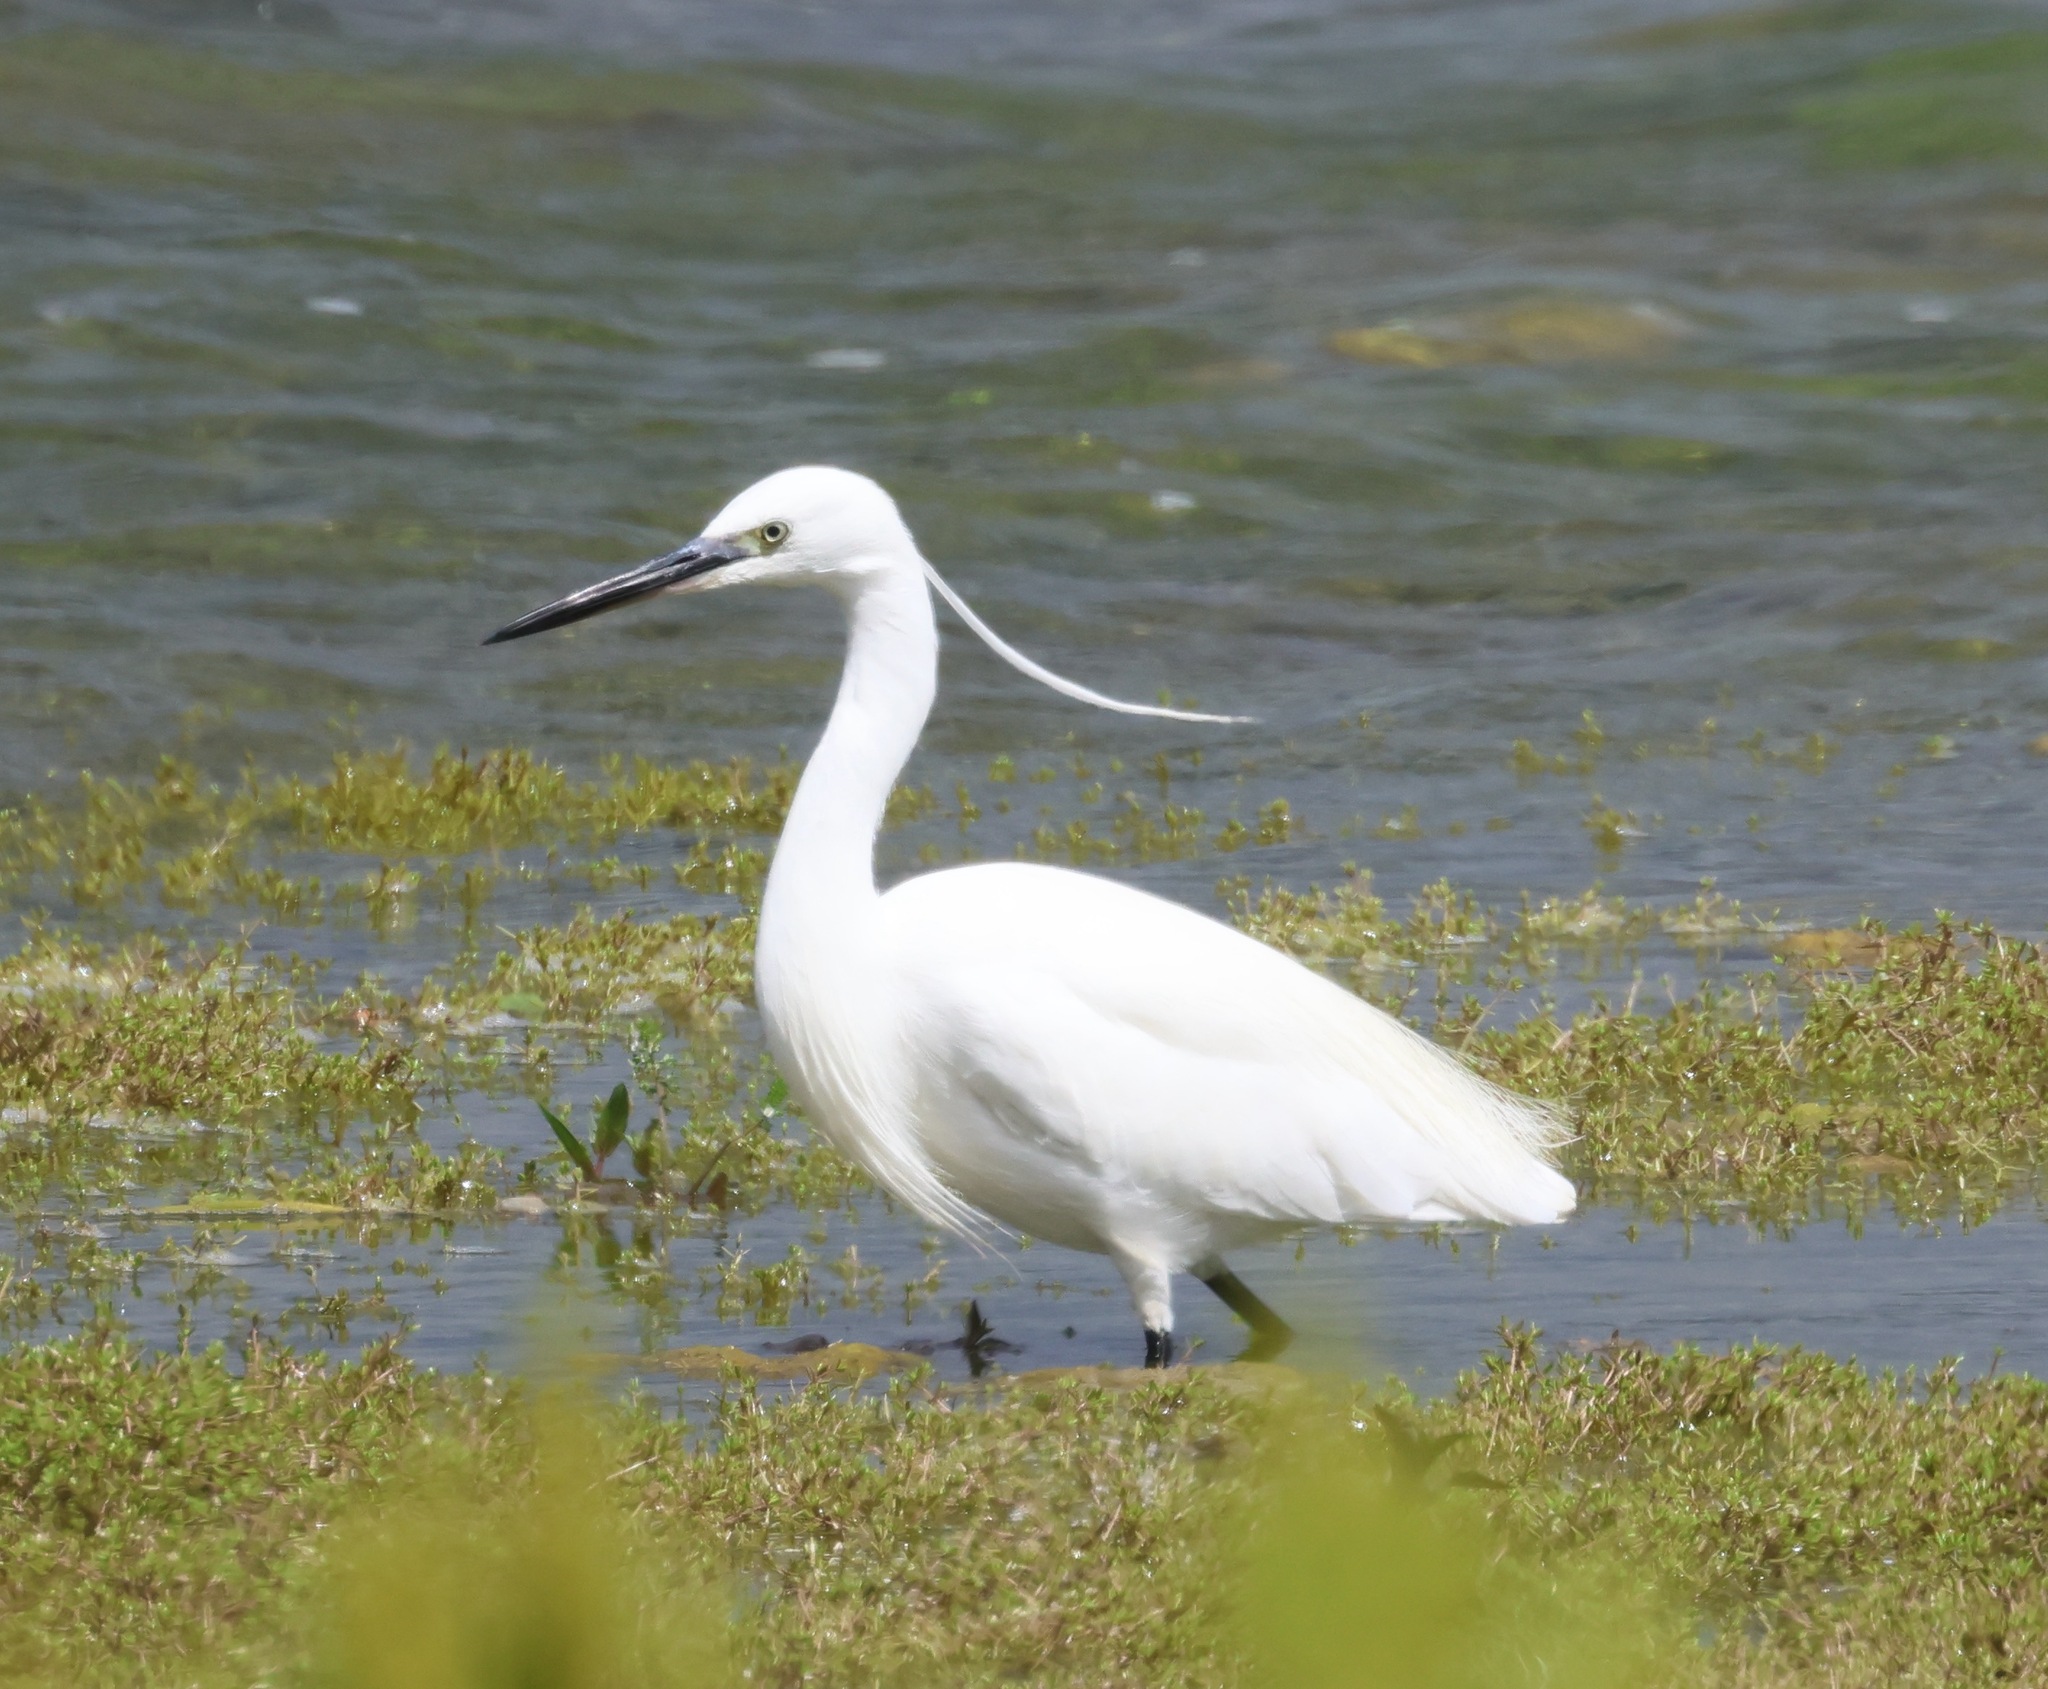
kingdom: Animalia
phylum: Chordata
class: Aves
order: Pelecaniformes
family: Ardeidae
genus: Egretta
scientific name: Egretta garzetta
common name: Little egret
